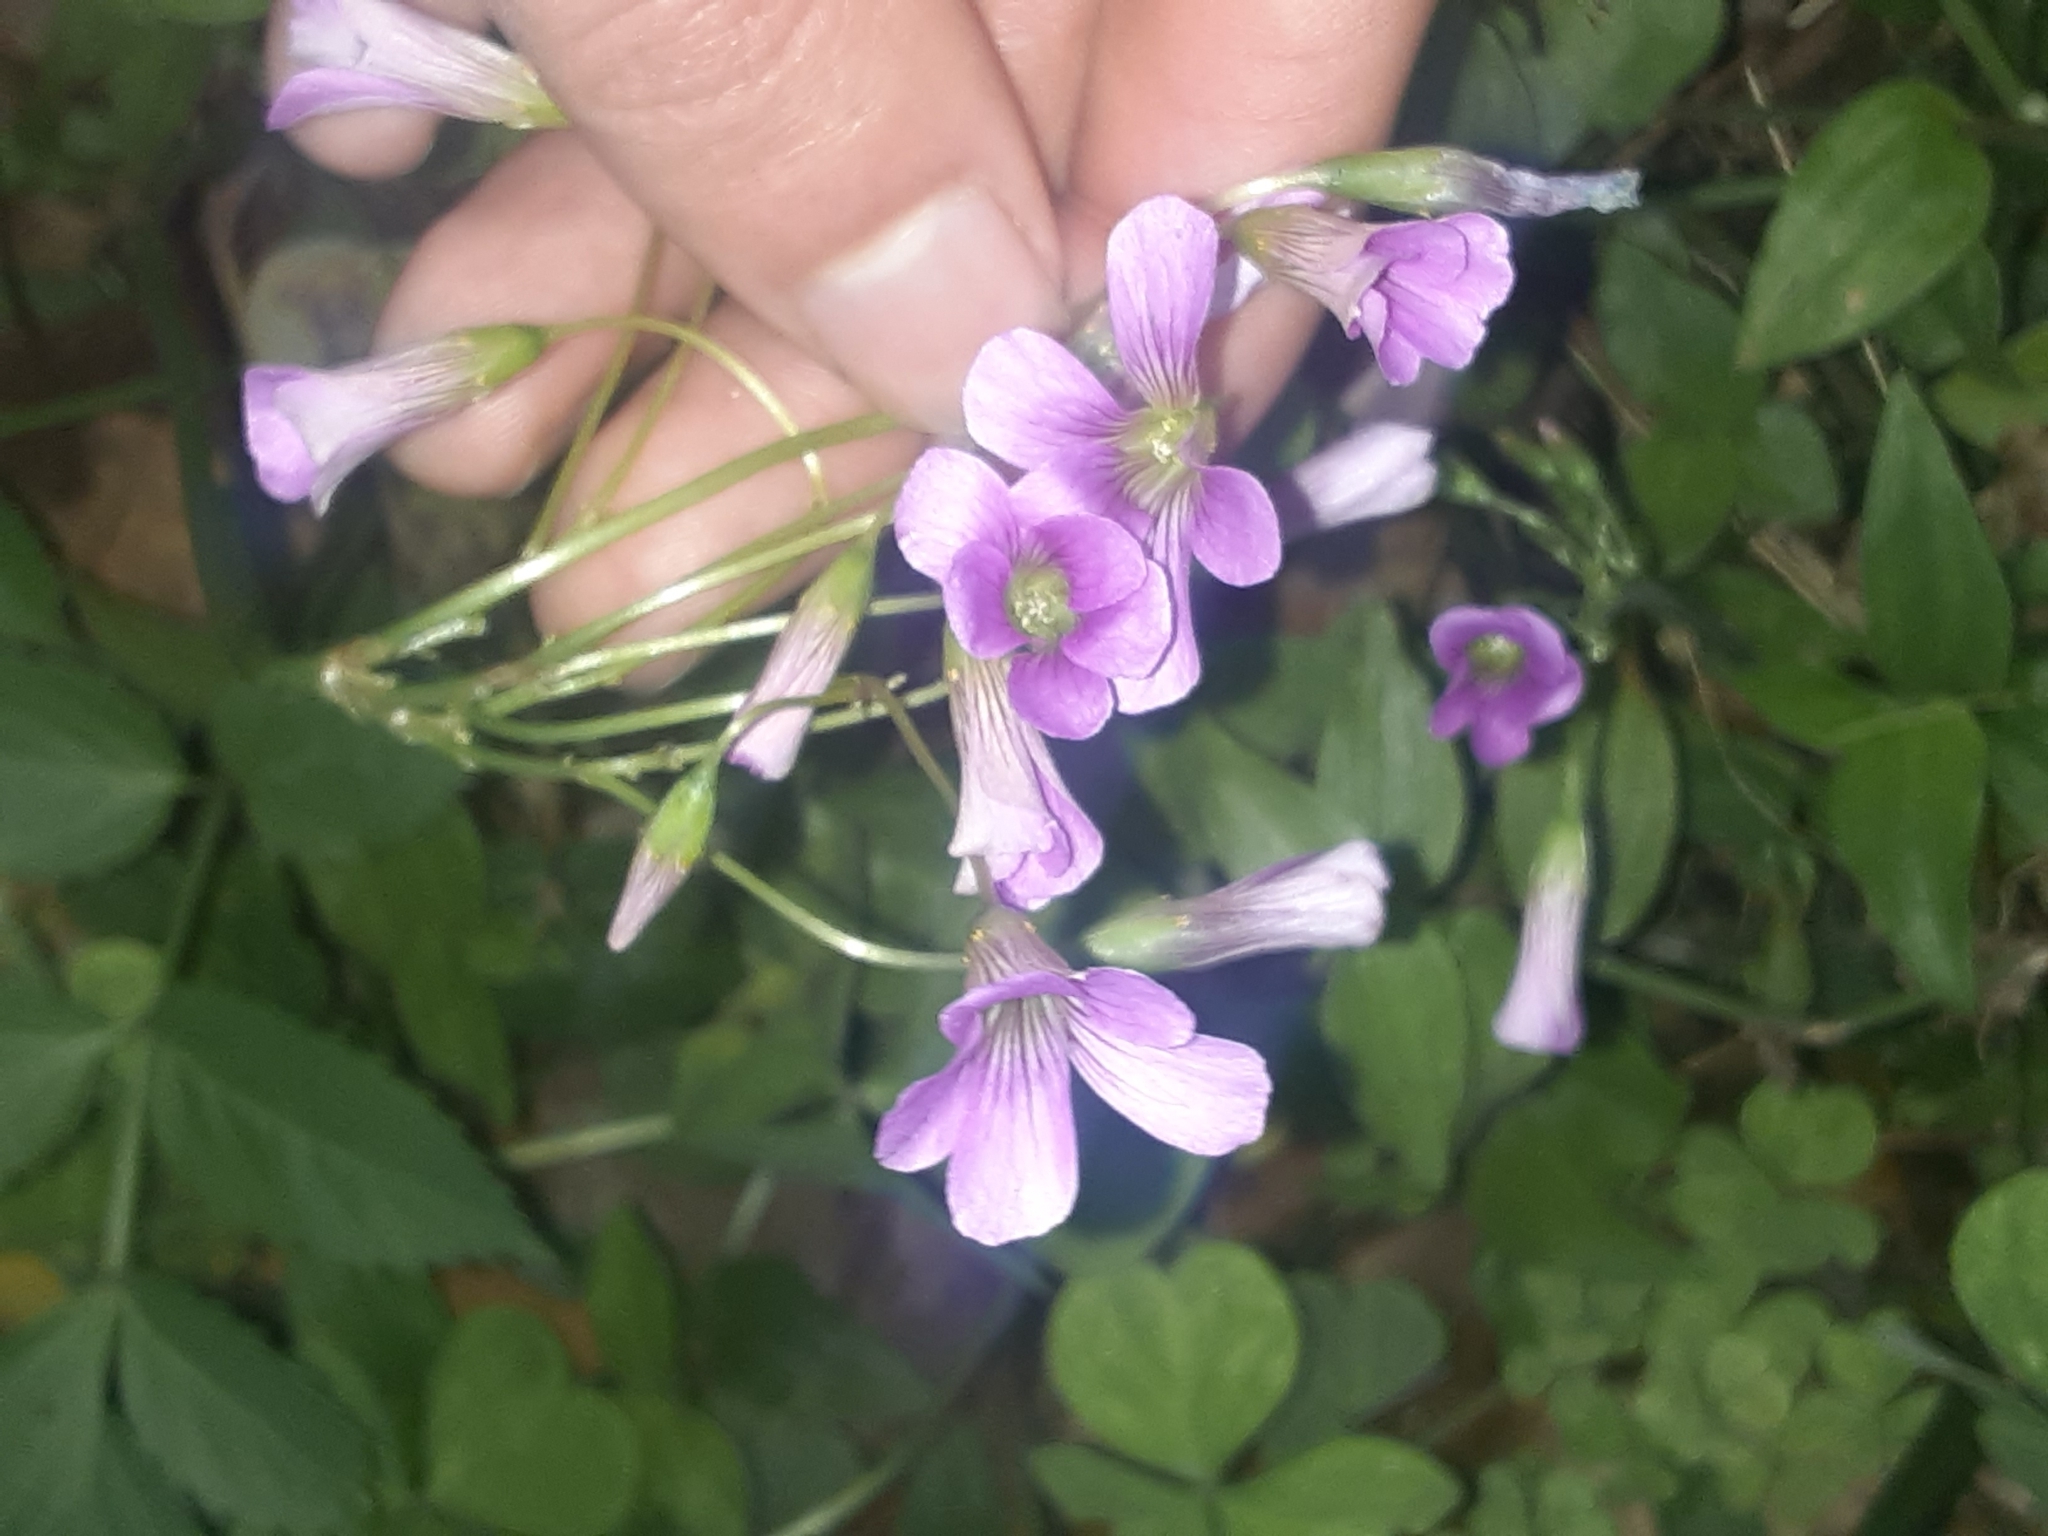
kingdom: Plantae
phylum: Tracheophyta
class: Magnoliopsida
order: Oxalidales
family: Oxalidaceae
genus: Oxalis
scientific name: Oxalis debilis
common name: Large-flowered pink-sorrel
